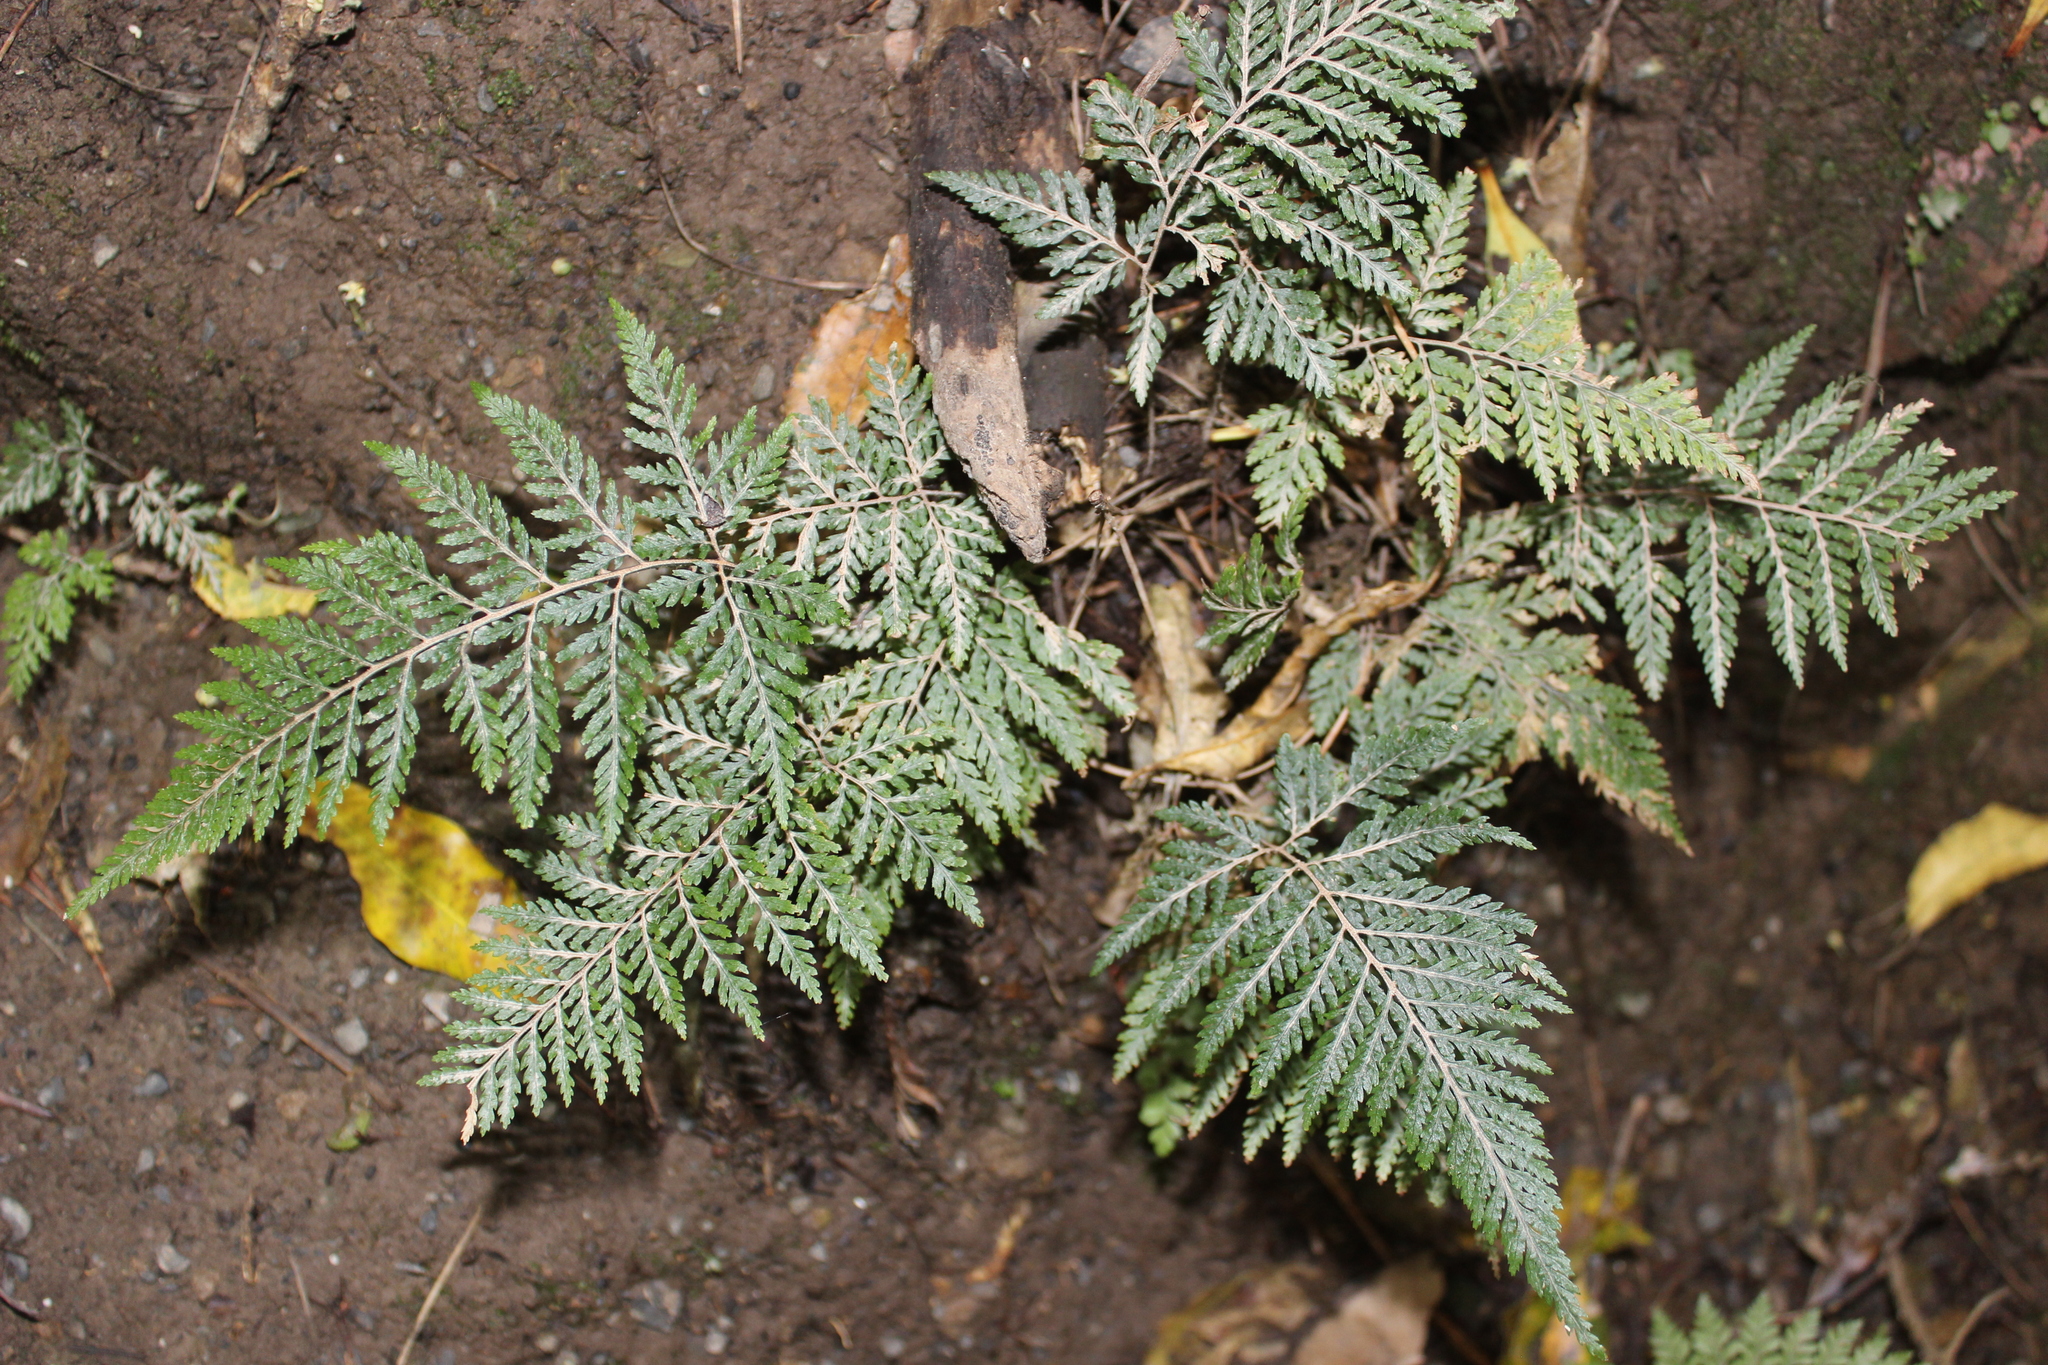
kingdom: Plantae
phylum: Tracheophyta
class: Polypodiopsida
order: Polypodiales
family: Dryopteridaceae
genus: Parapolystichum
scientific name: Parapolystichum glabellum
